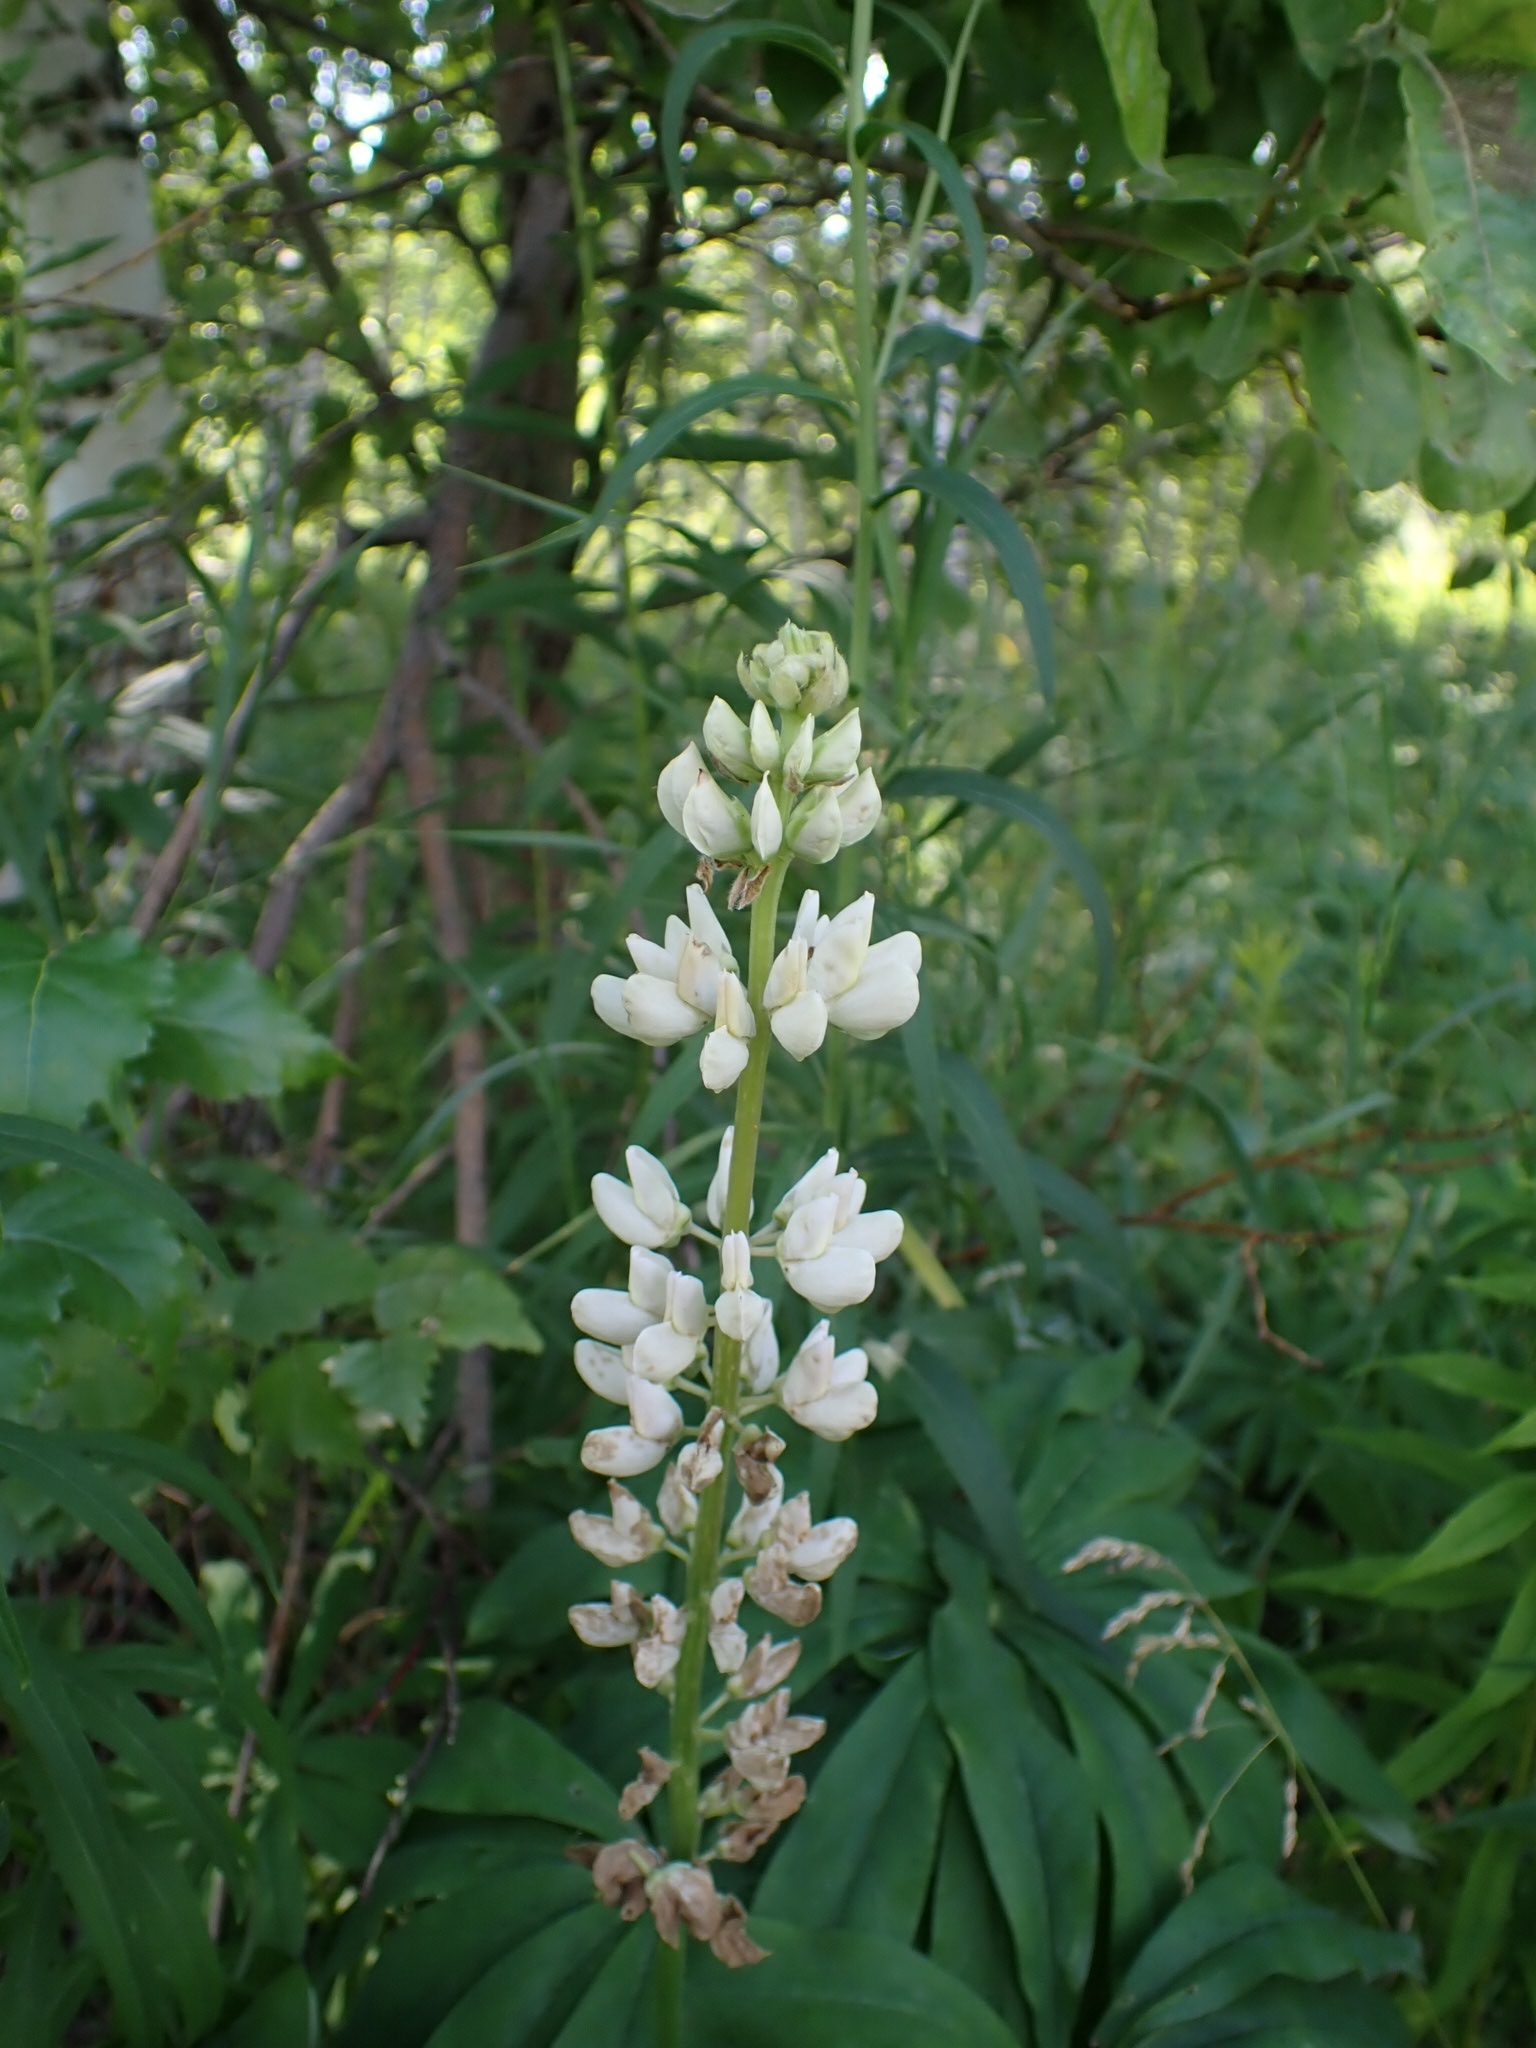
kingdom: Plantae
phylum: Tracheophyta
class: Magnoliopsida
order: Fabales
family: Fabaceae
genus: Lupinus
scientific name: Lupinus polyphyllus
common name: Garden lupin
